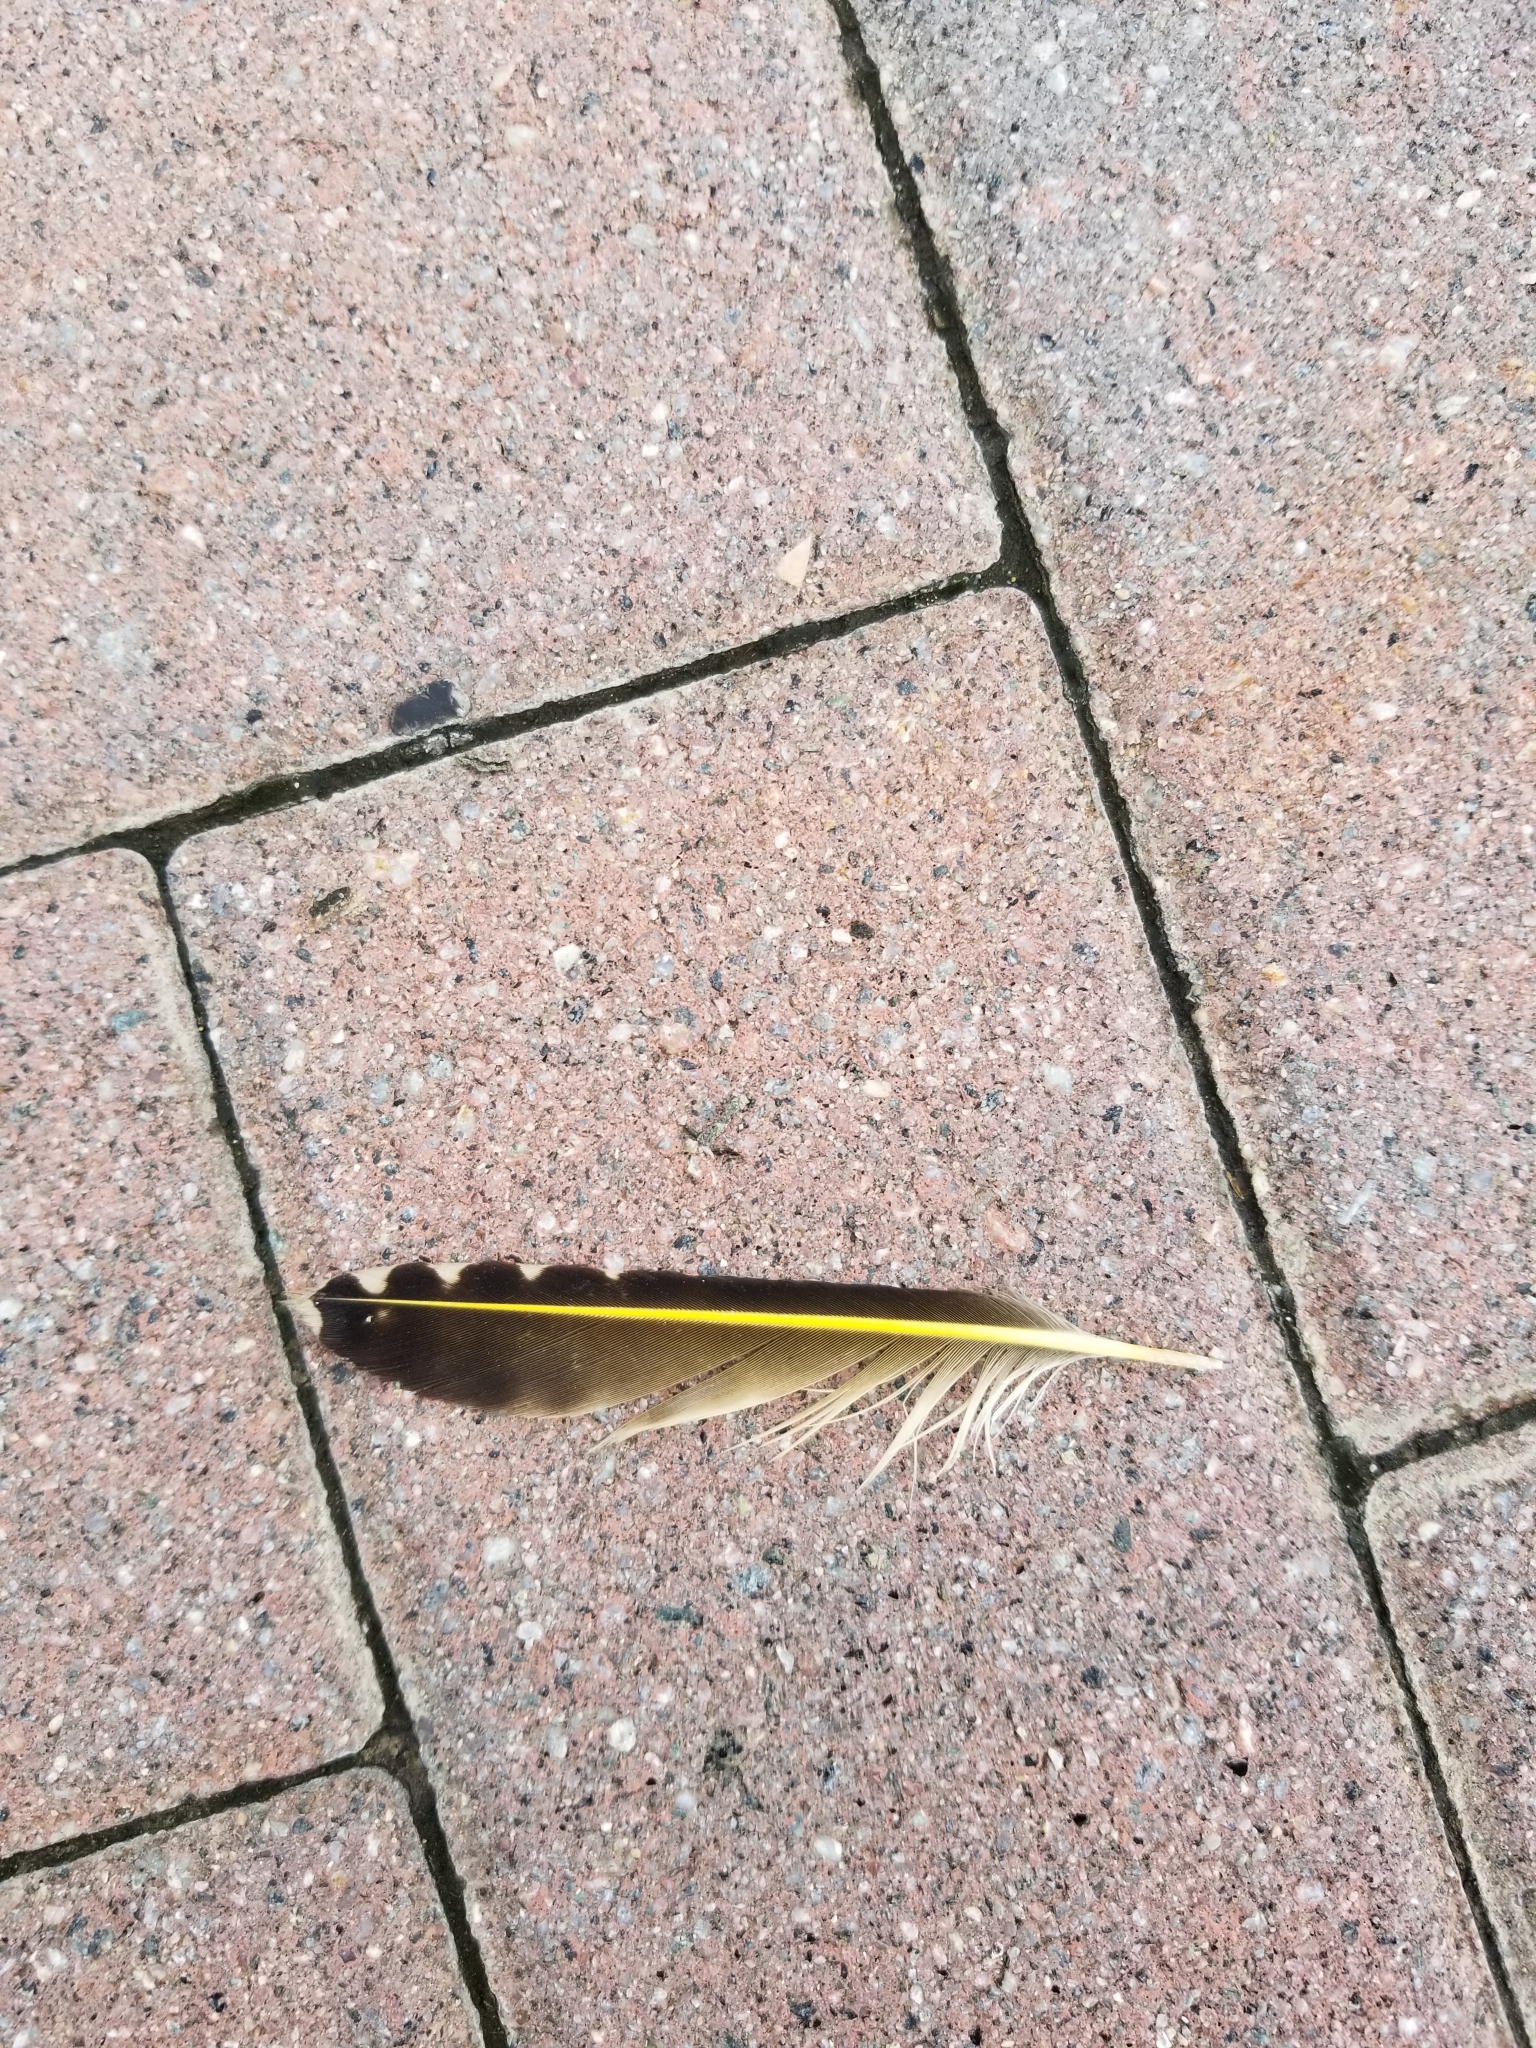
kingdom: Animalia
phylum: Chordata
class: Aves
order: Piciformes
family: Picidae
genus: Colaptes
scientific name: Colaptes auratus
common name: Northern flicker
